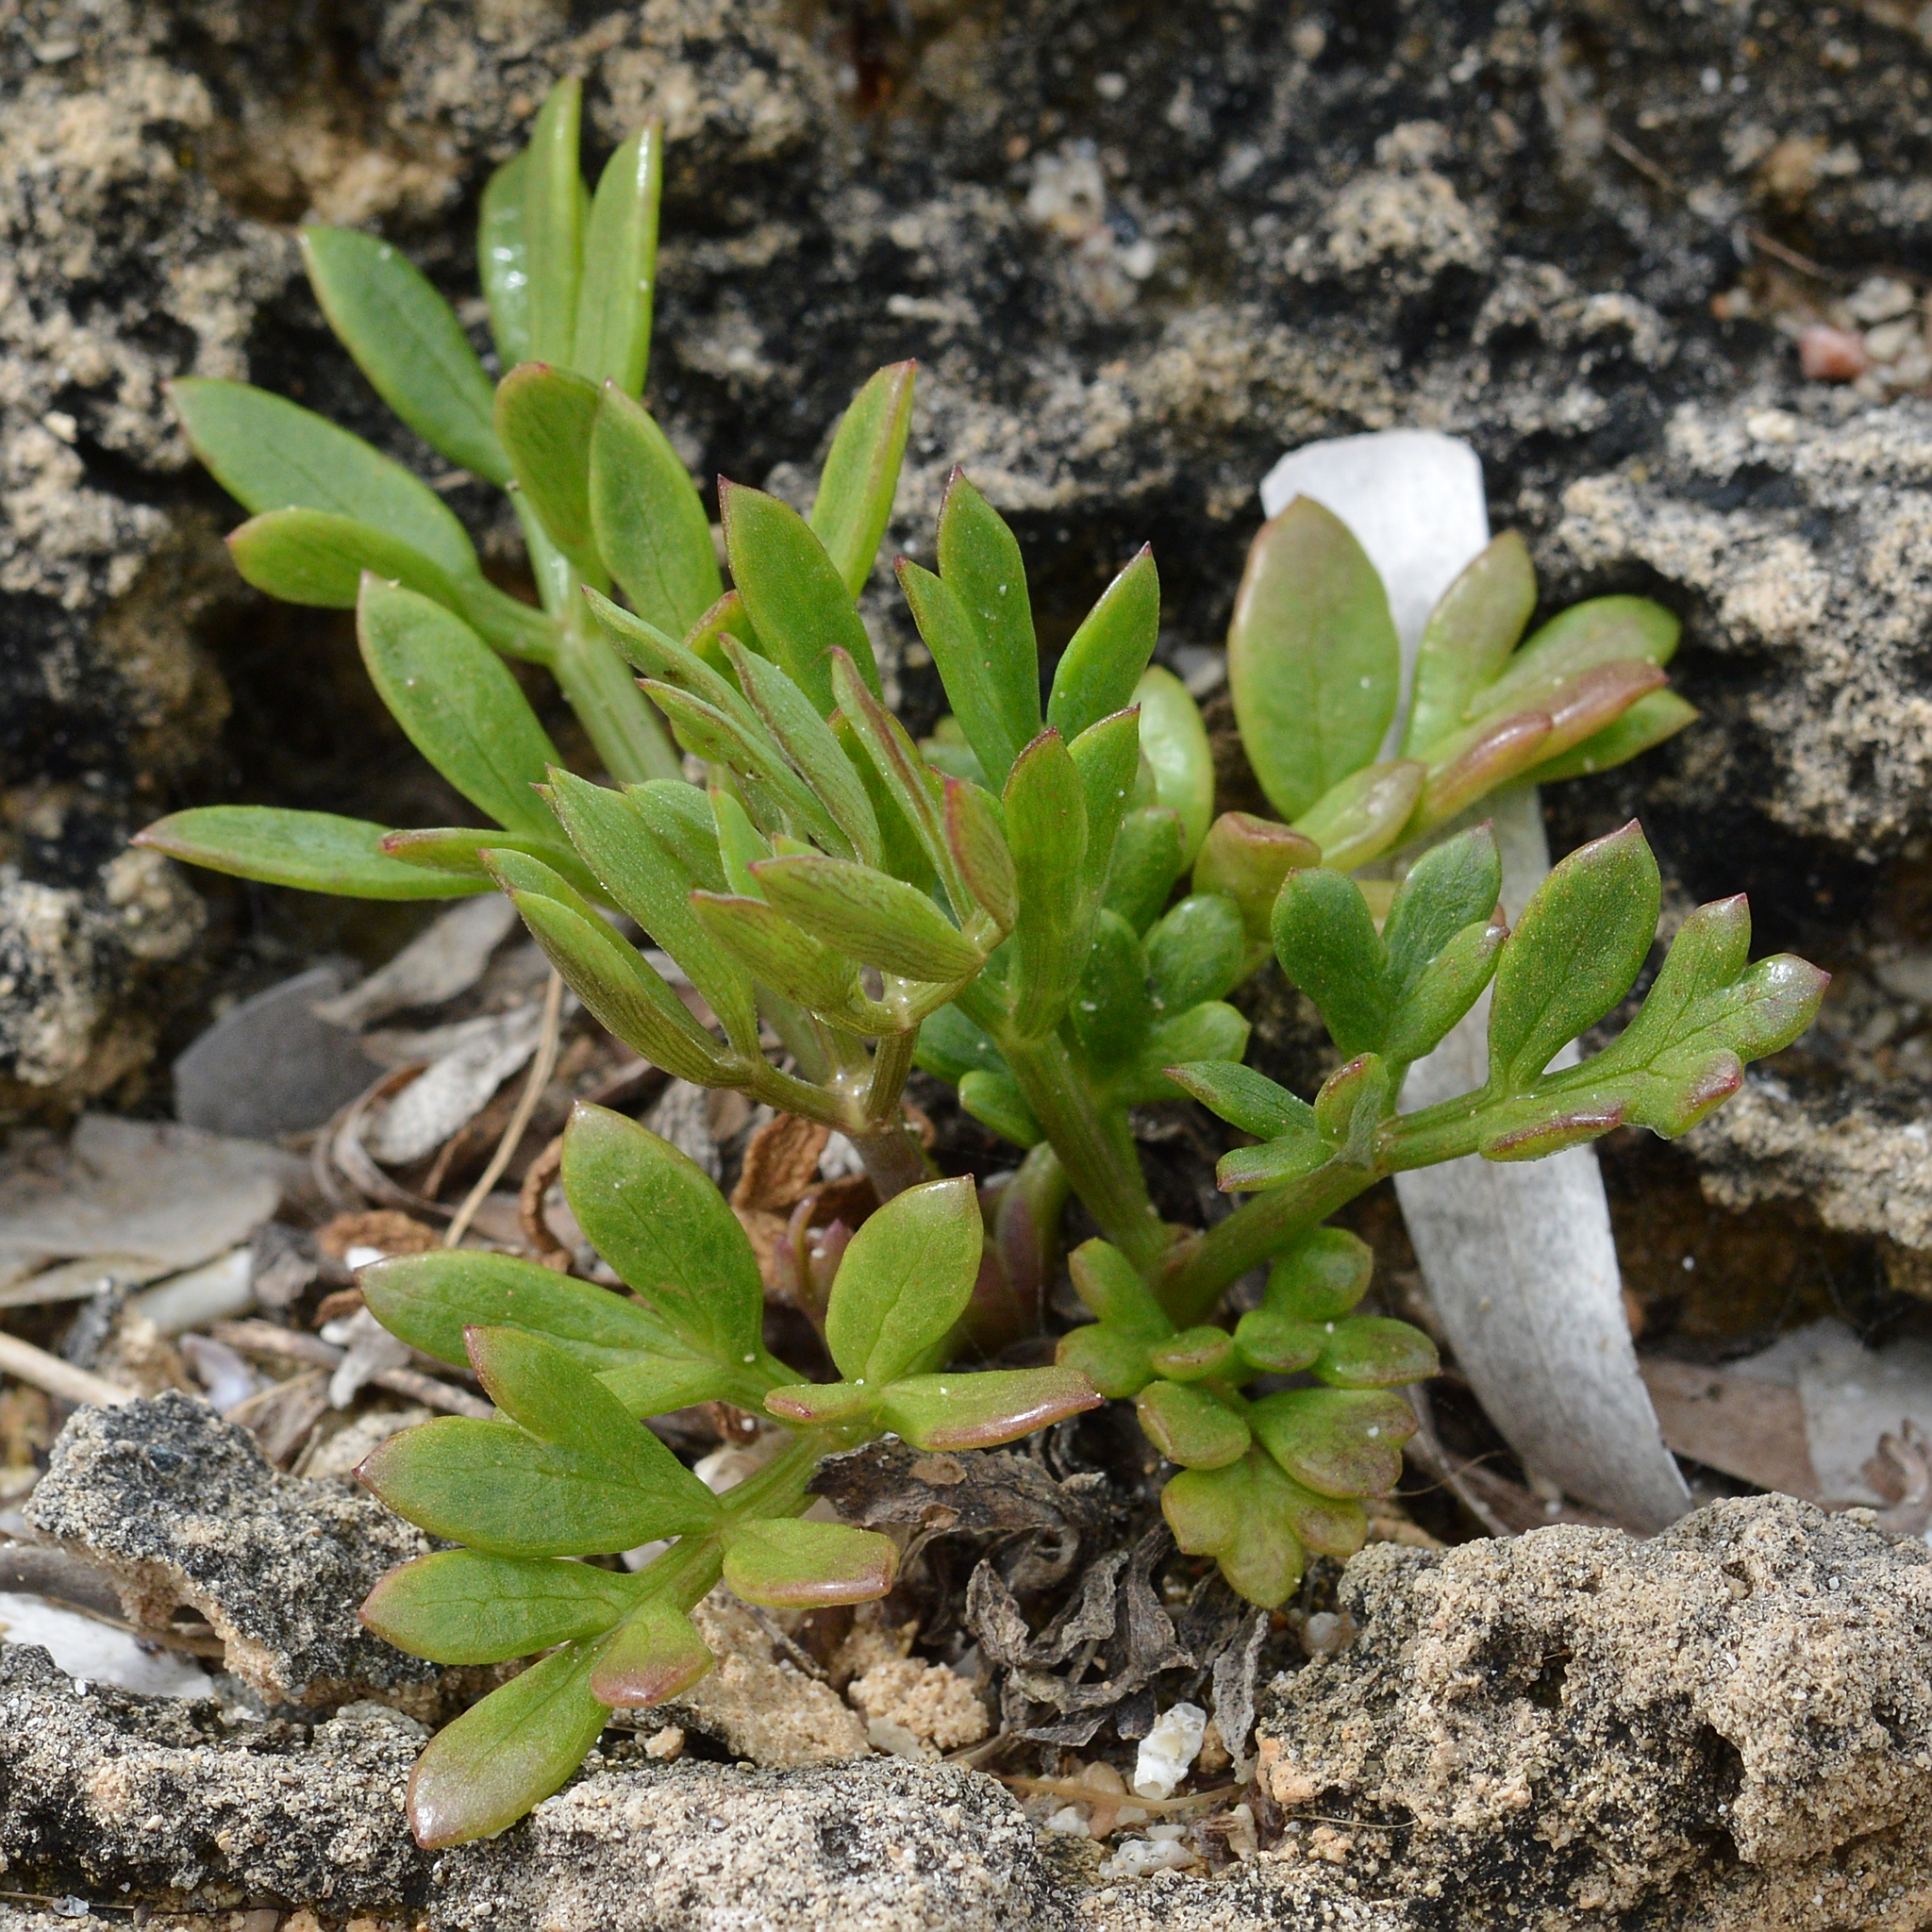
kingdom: Plantae
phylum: Tracheophyta
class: Magnoliopsida
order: Apiales
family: Apiaceae
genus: Crithmum
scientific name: Crithmum maritimum
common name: Rock samphire
